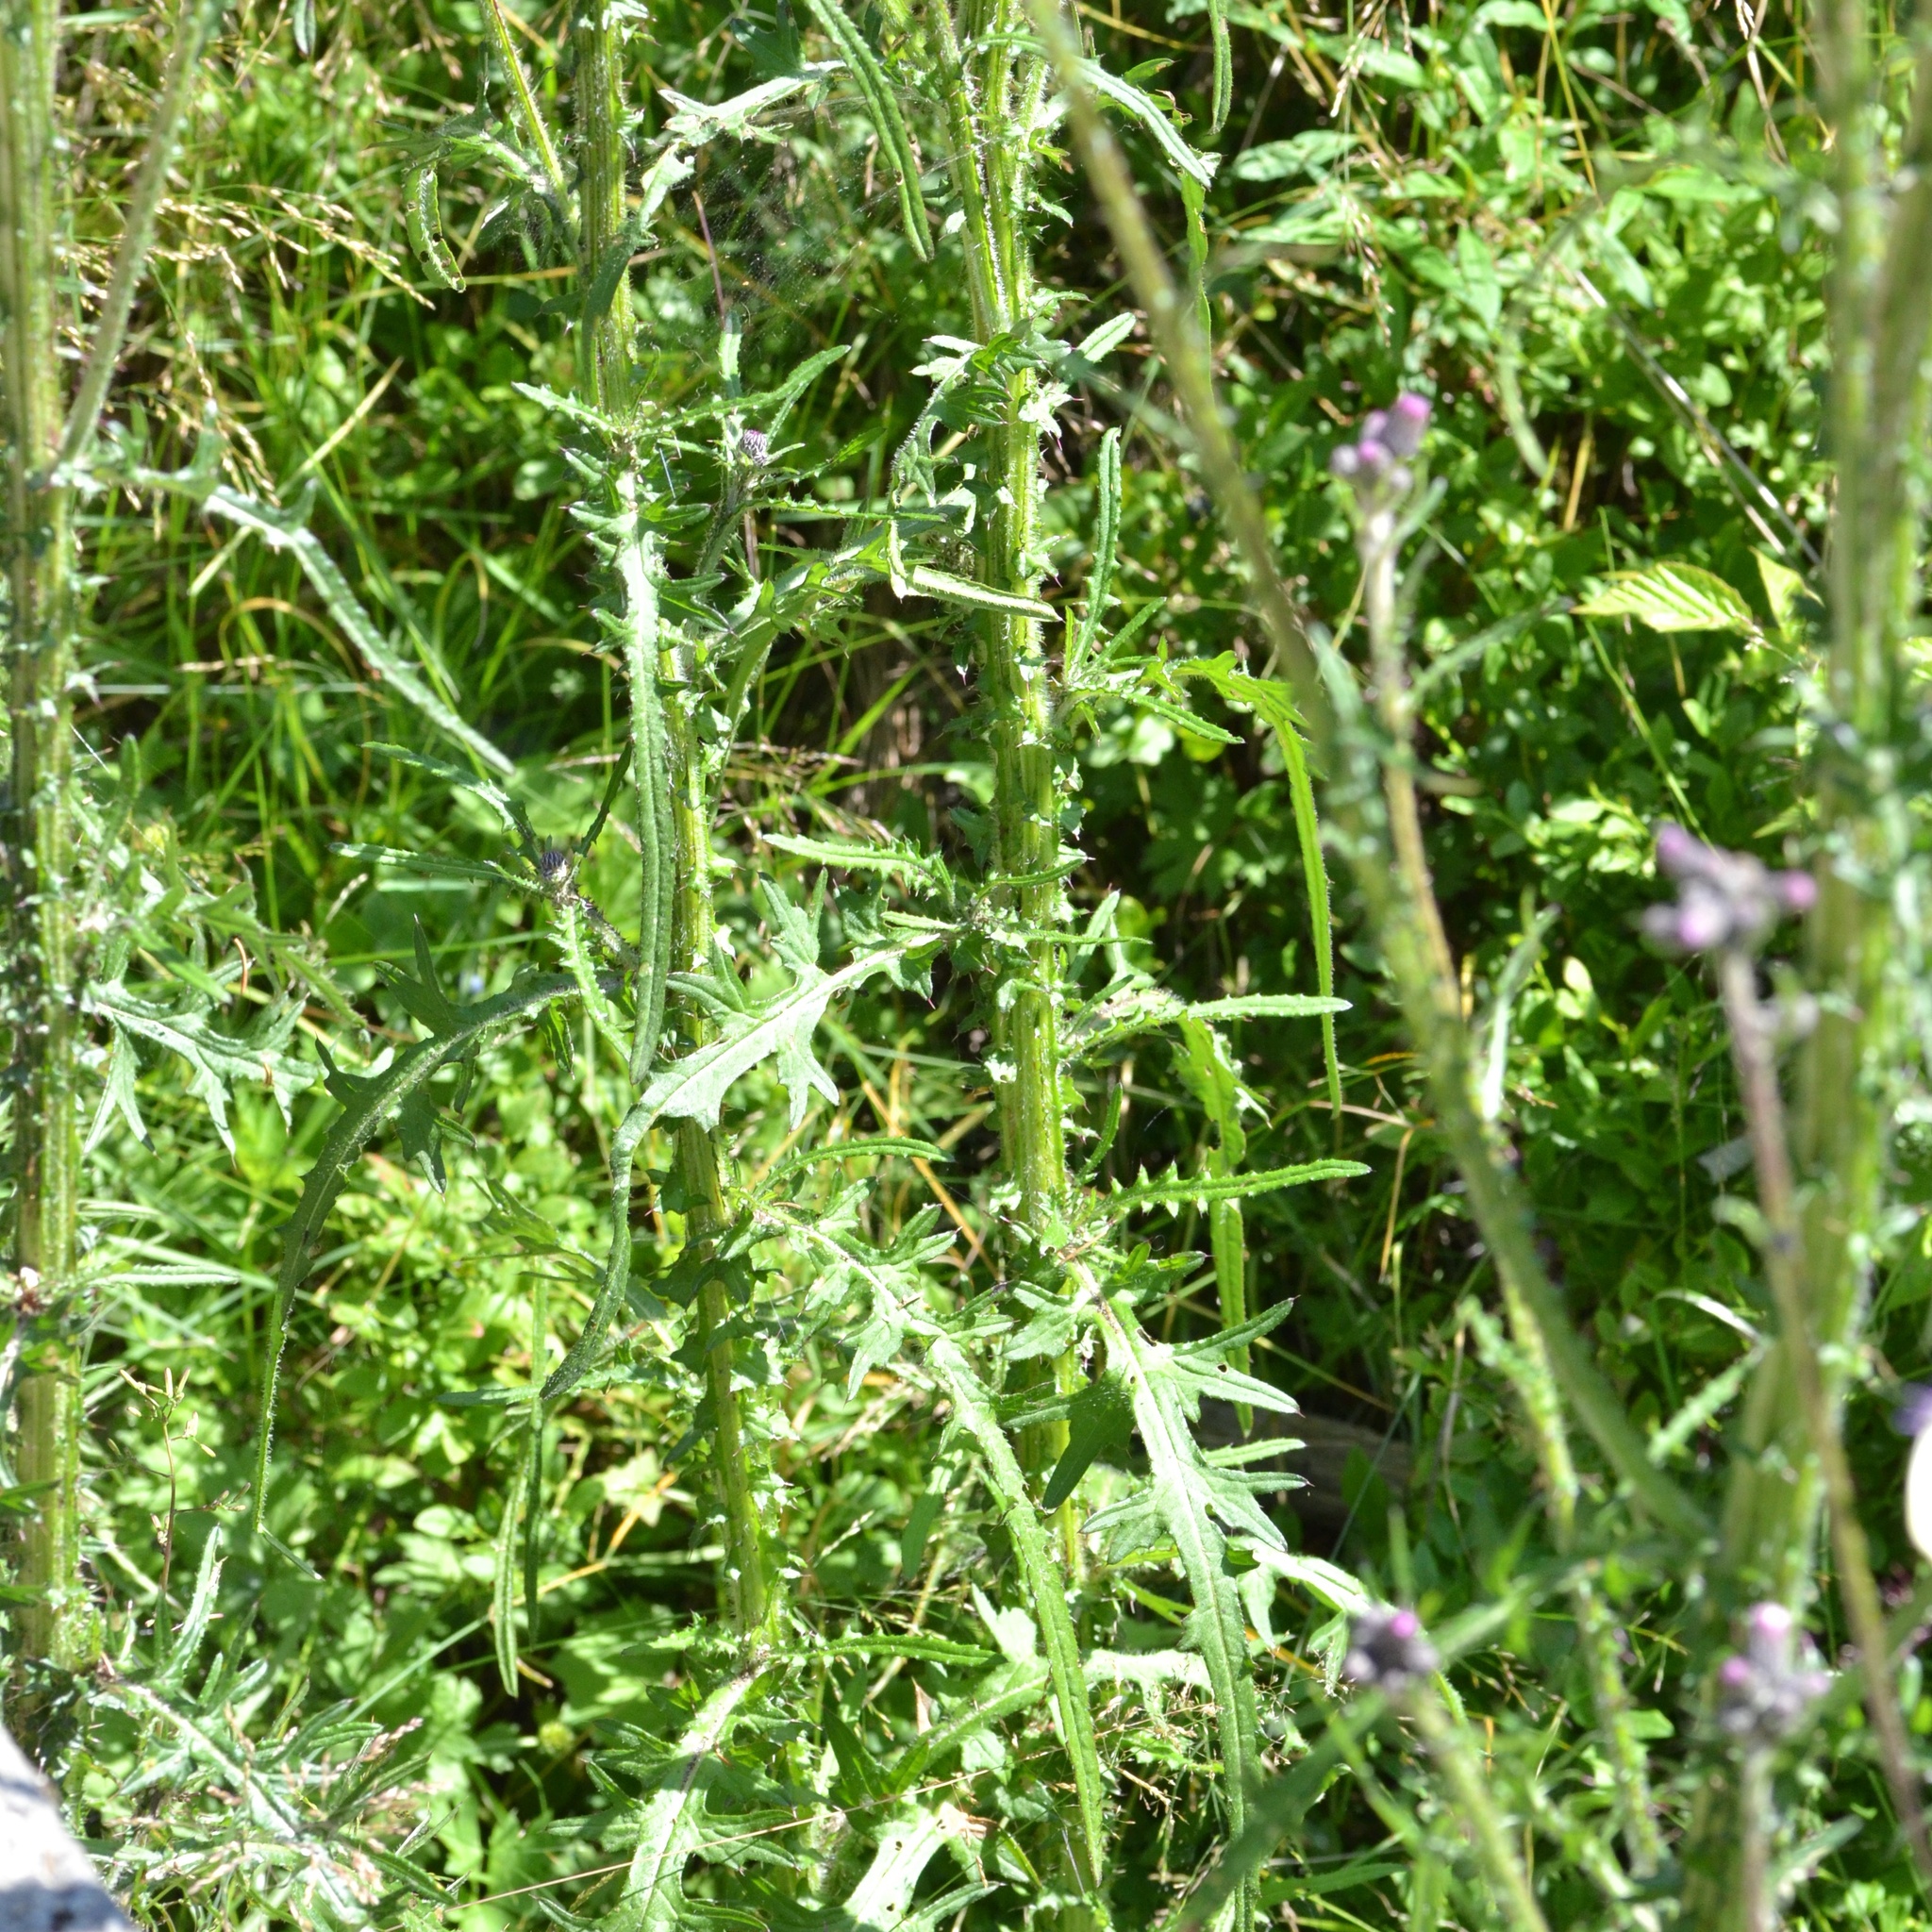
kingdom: Plantae
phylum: Tracheophyta
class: Magnoliopsida
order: Asterales
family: Asteraceae
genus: Cirsium
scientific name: Cirsium palustre
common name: Marsh thistle
